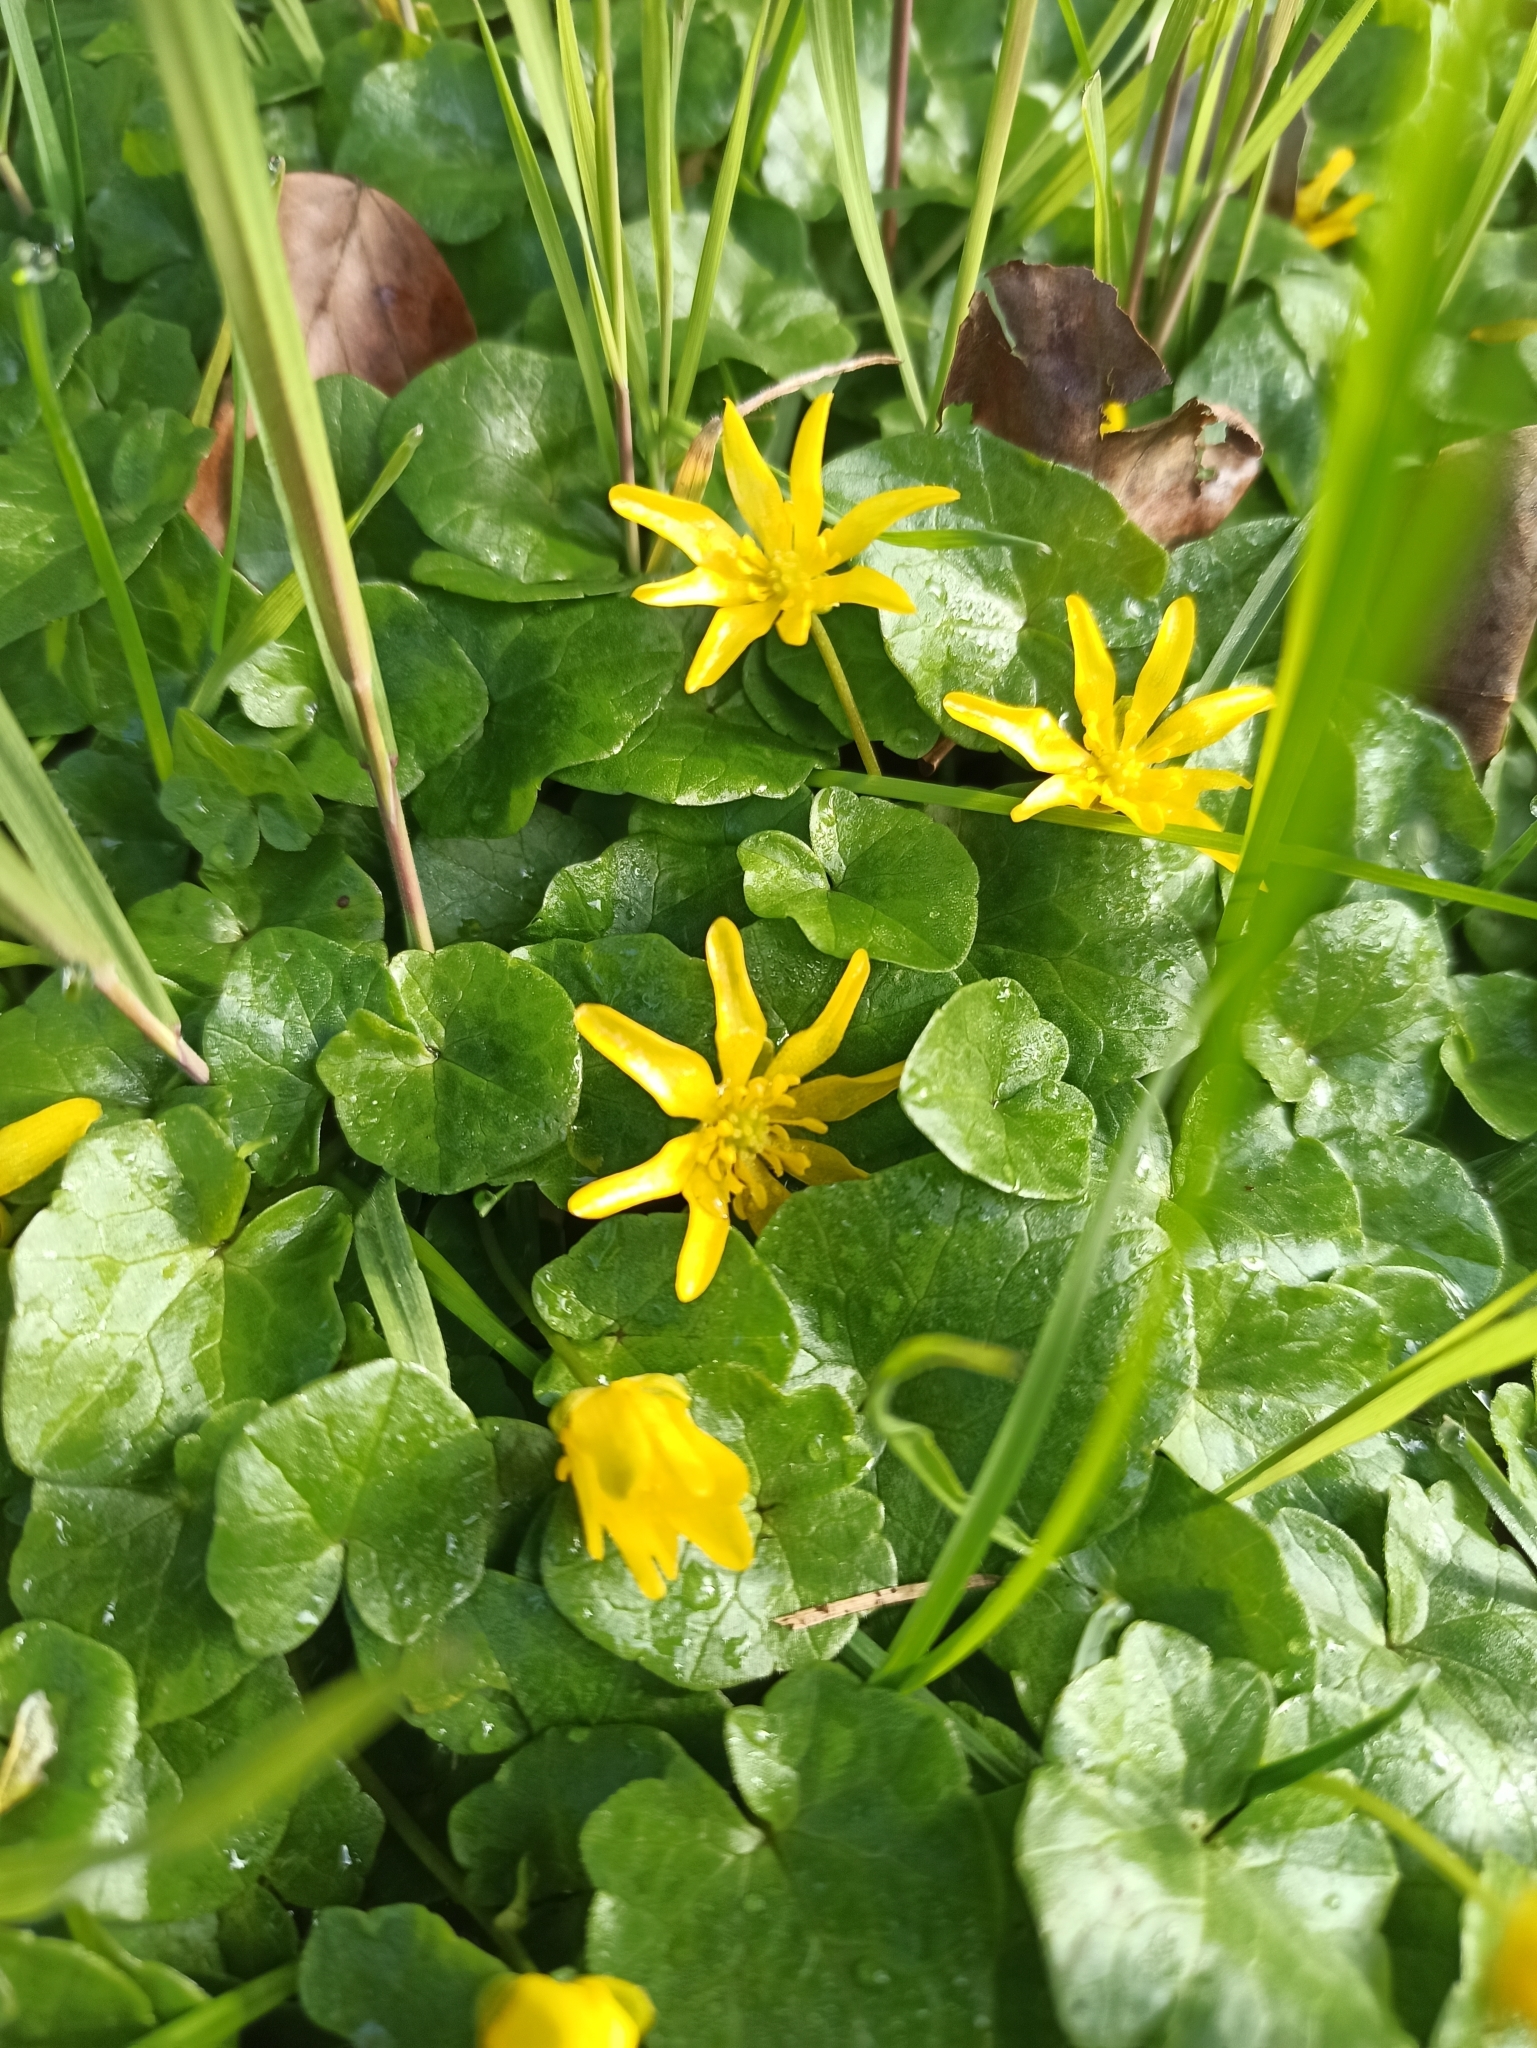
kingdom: Plantae
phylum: Tracheophyta
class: Magnoliopsida
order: Ranunculales
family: Ranunculaceae
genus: Ficaria
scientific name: Ficaria verna
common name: Lesser celandine
